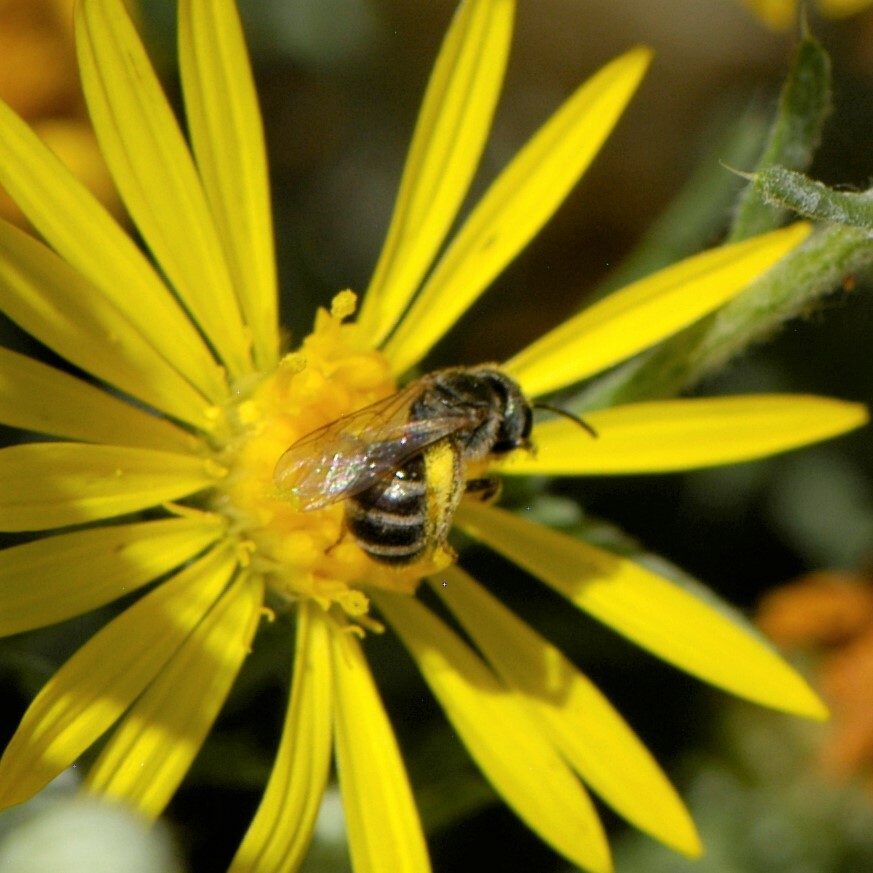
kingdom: Animalia
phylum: Arthropoda
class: Insecta
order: Hymenoptera
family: Halictidae
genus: Halictus
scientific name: Halictus tripartitus
